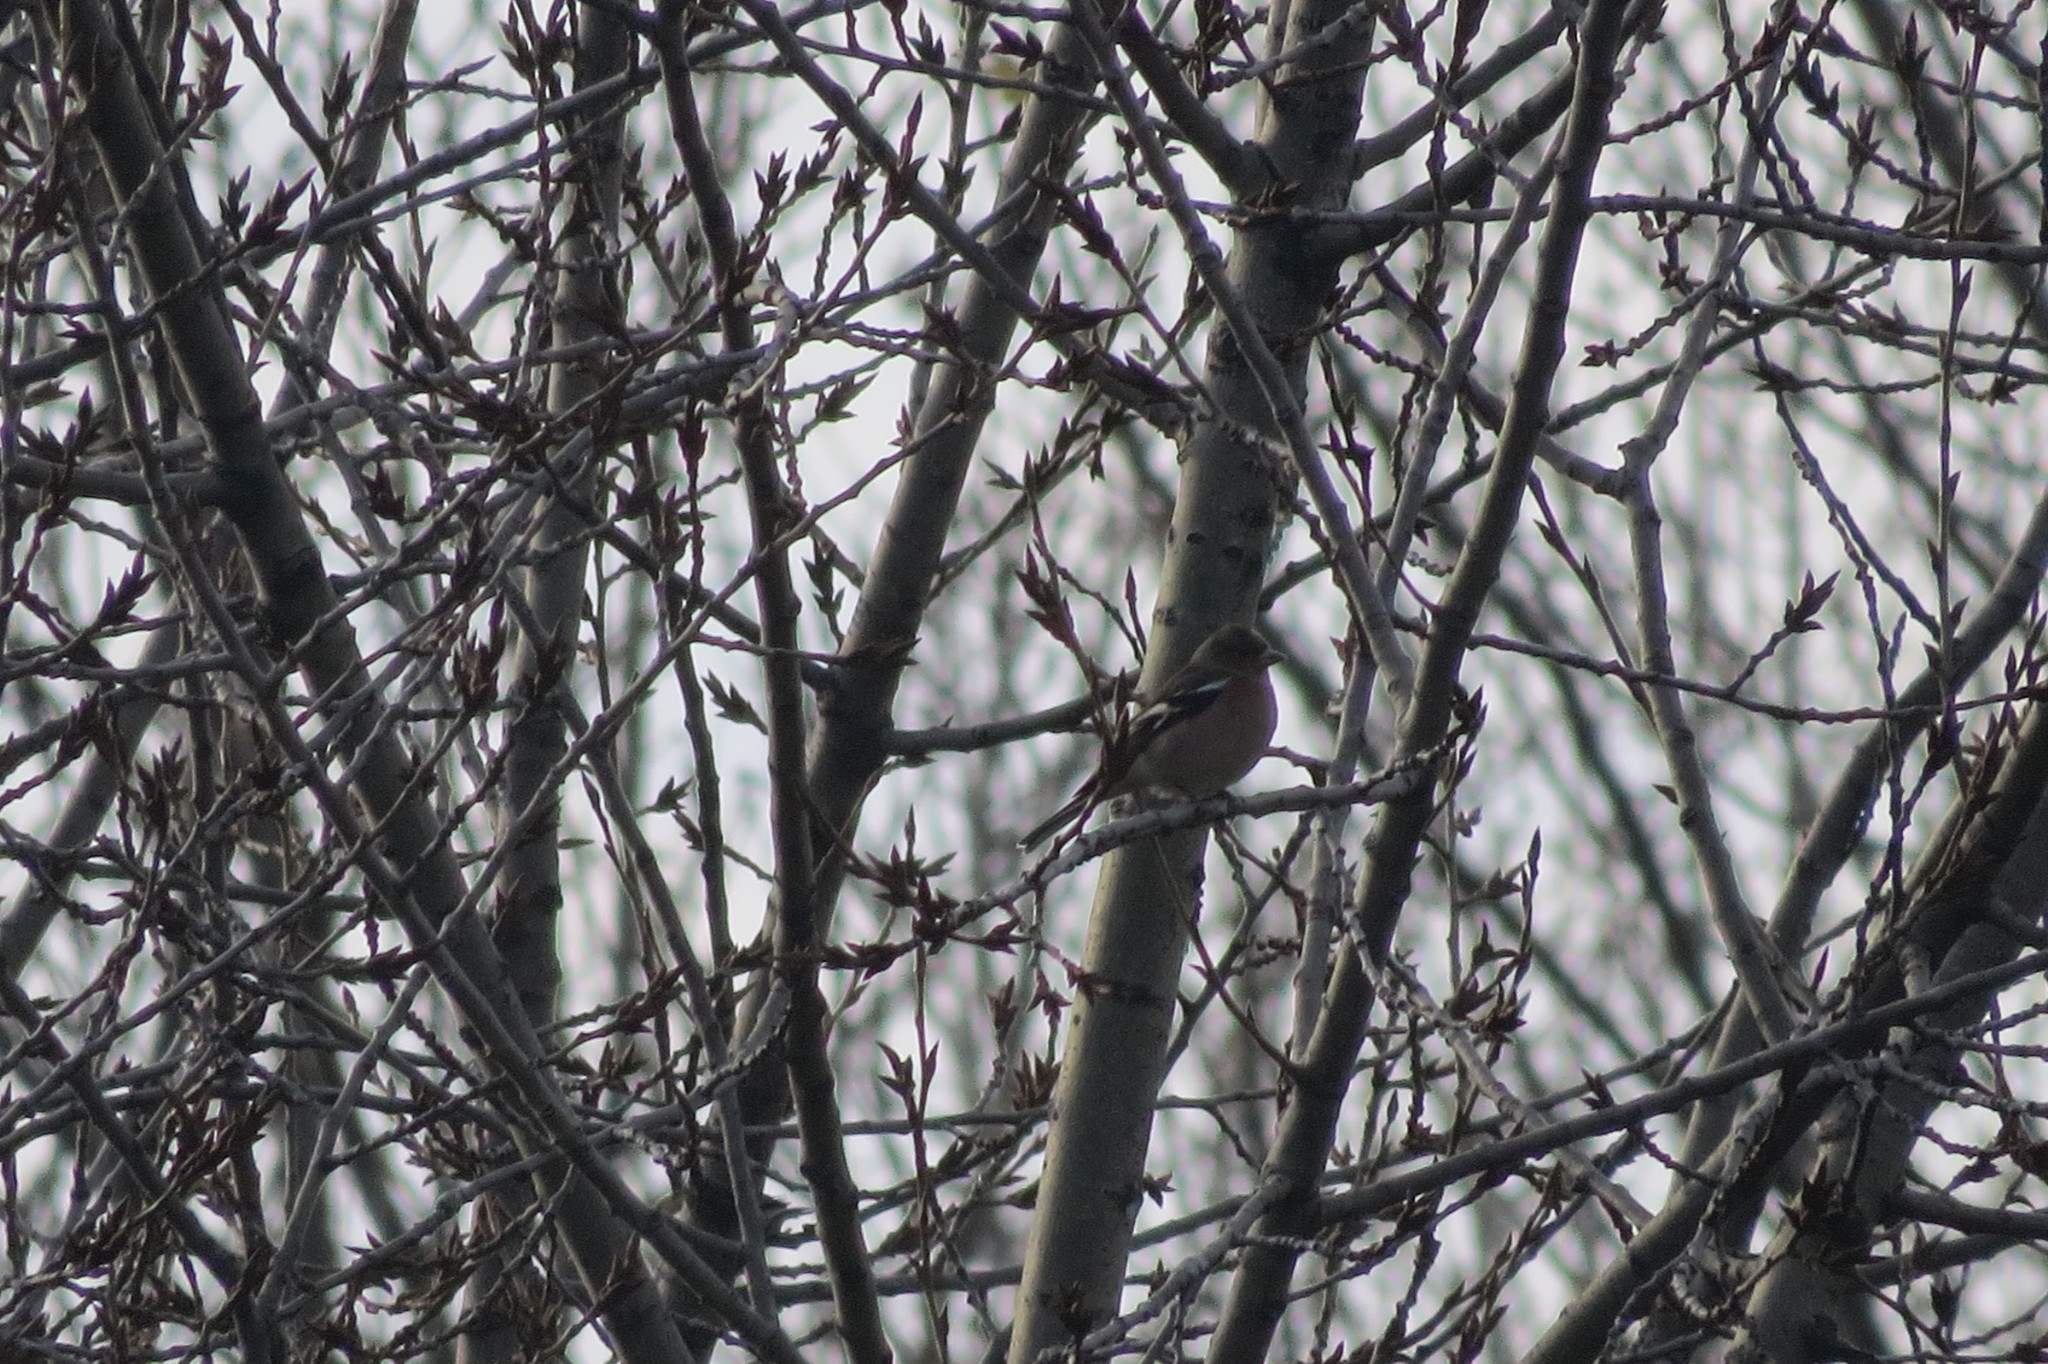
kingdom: Animalia
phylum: Chordata
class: Aves
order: Passeriformes
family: Fringillidae
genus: Fringilla
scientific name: Fringilla coelebs
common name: Common chaffinch
